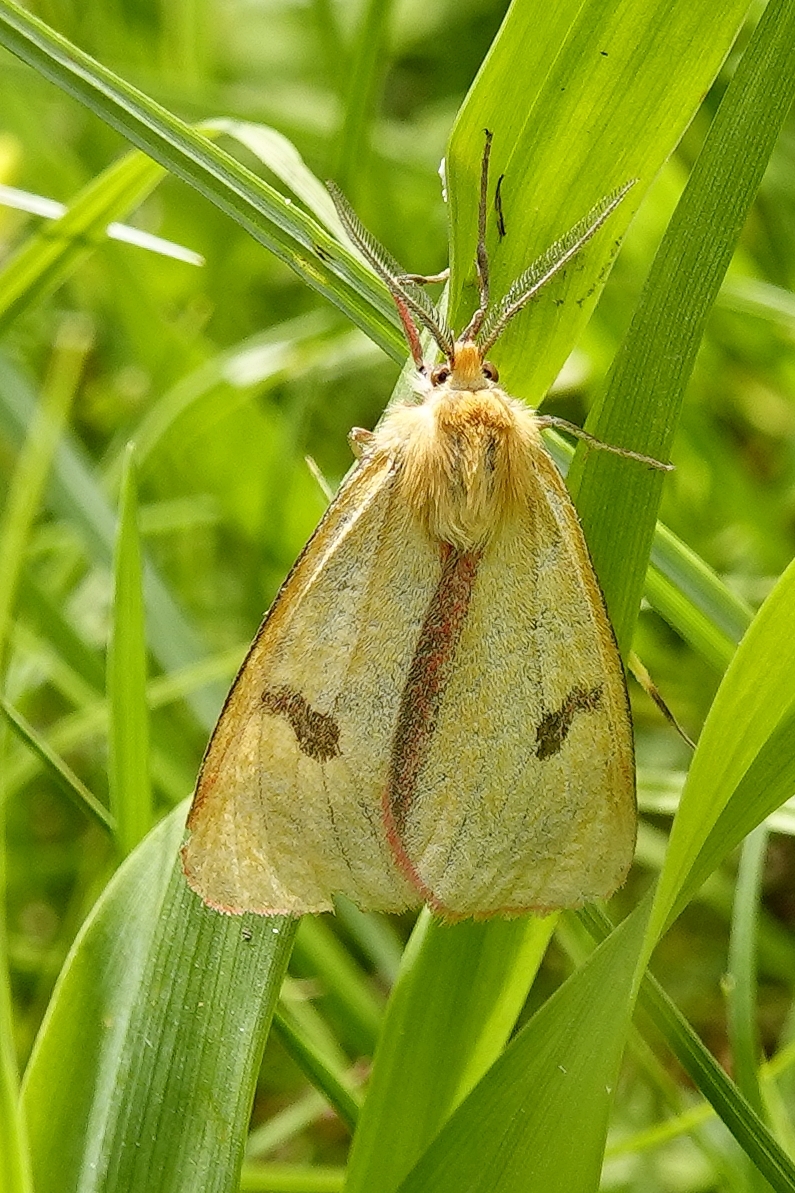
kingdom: Animalia
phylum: Arthropoda
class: Insecta
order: Lepidoptera
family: Erebidae
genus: Diacrisia
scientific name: Diacrisia sannio
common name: Clouded buff
